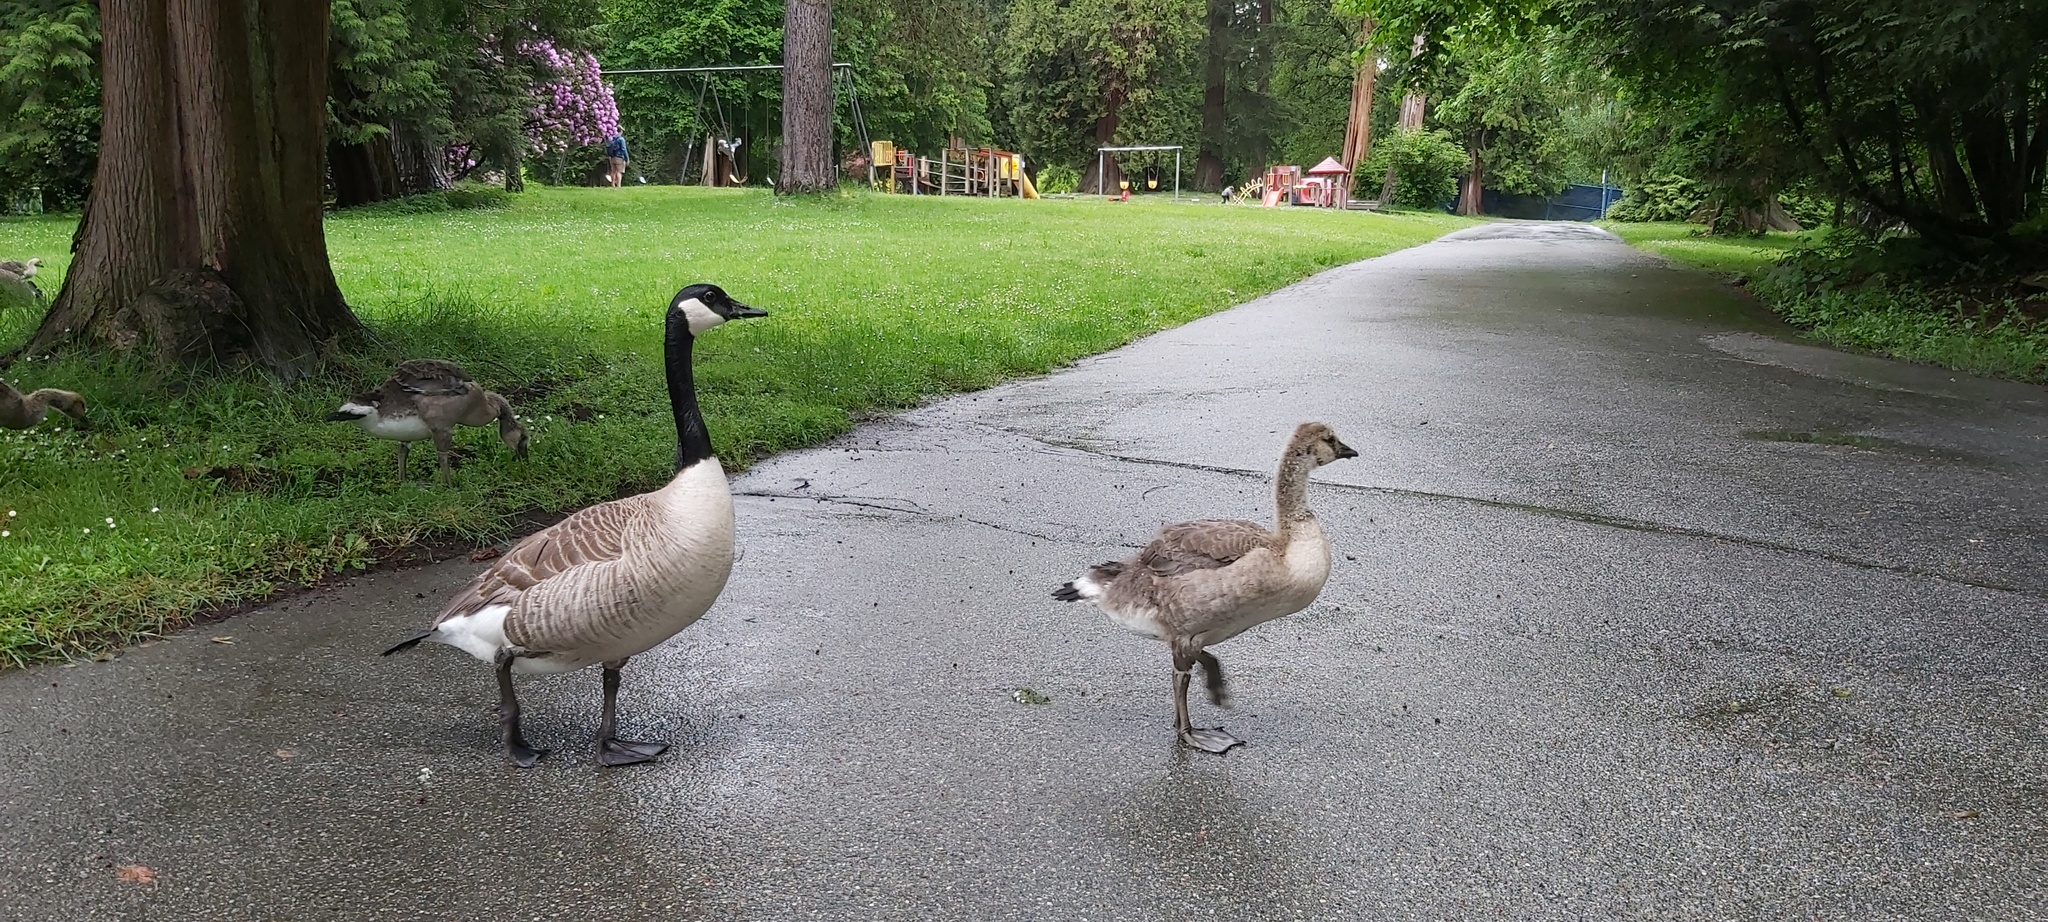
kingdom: Animalia
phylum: Chordata
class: Aves
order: Anseriformes
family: Anatidae
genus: Branta
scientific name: Branta canadensis
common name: Canada goose
